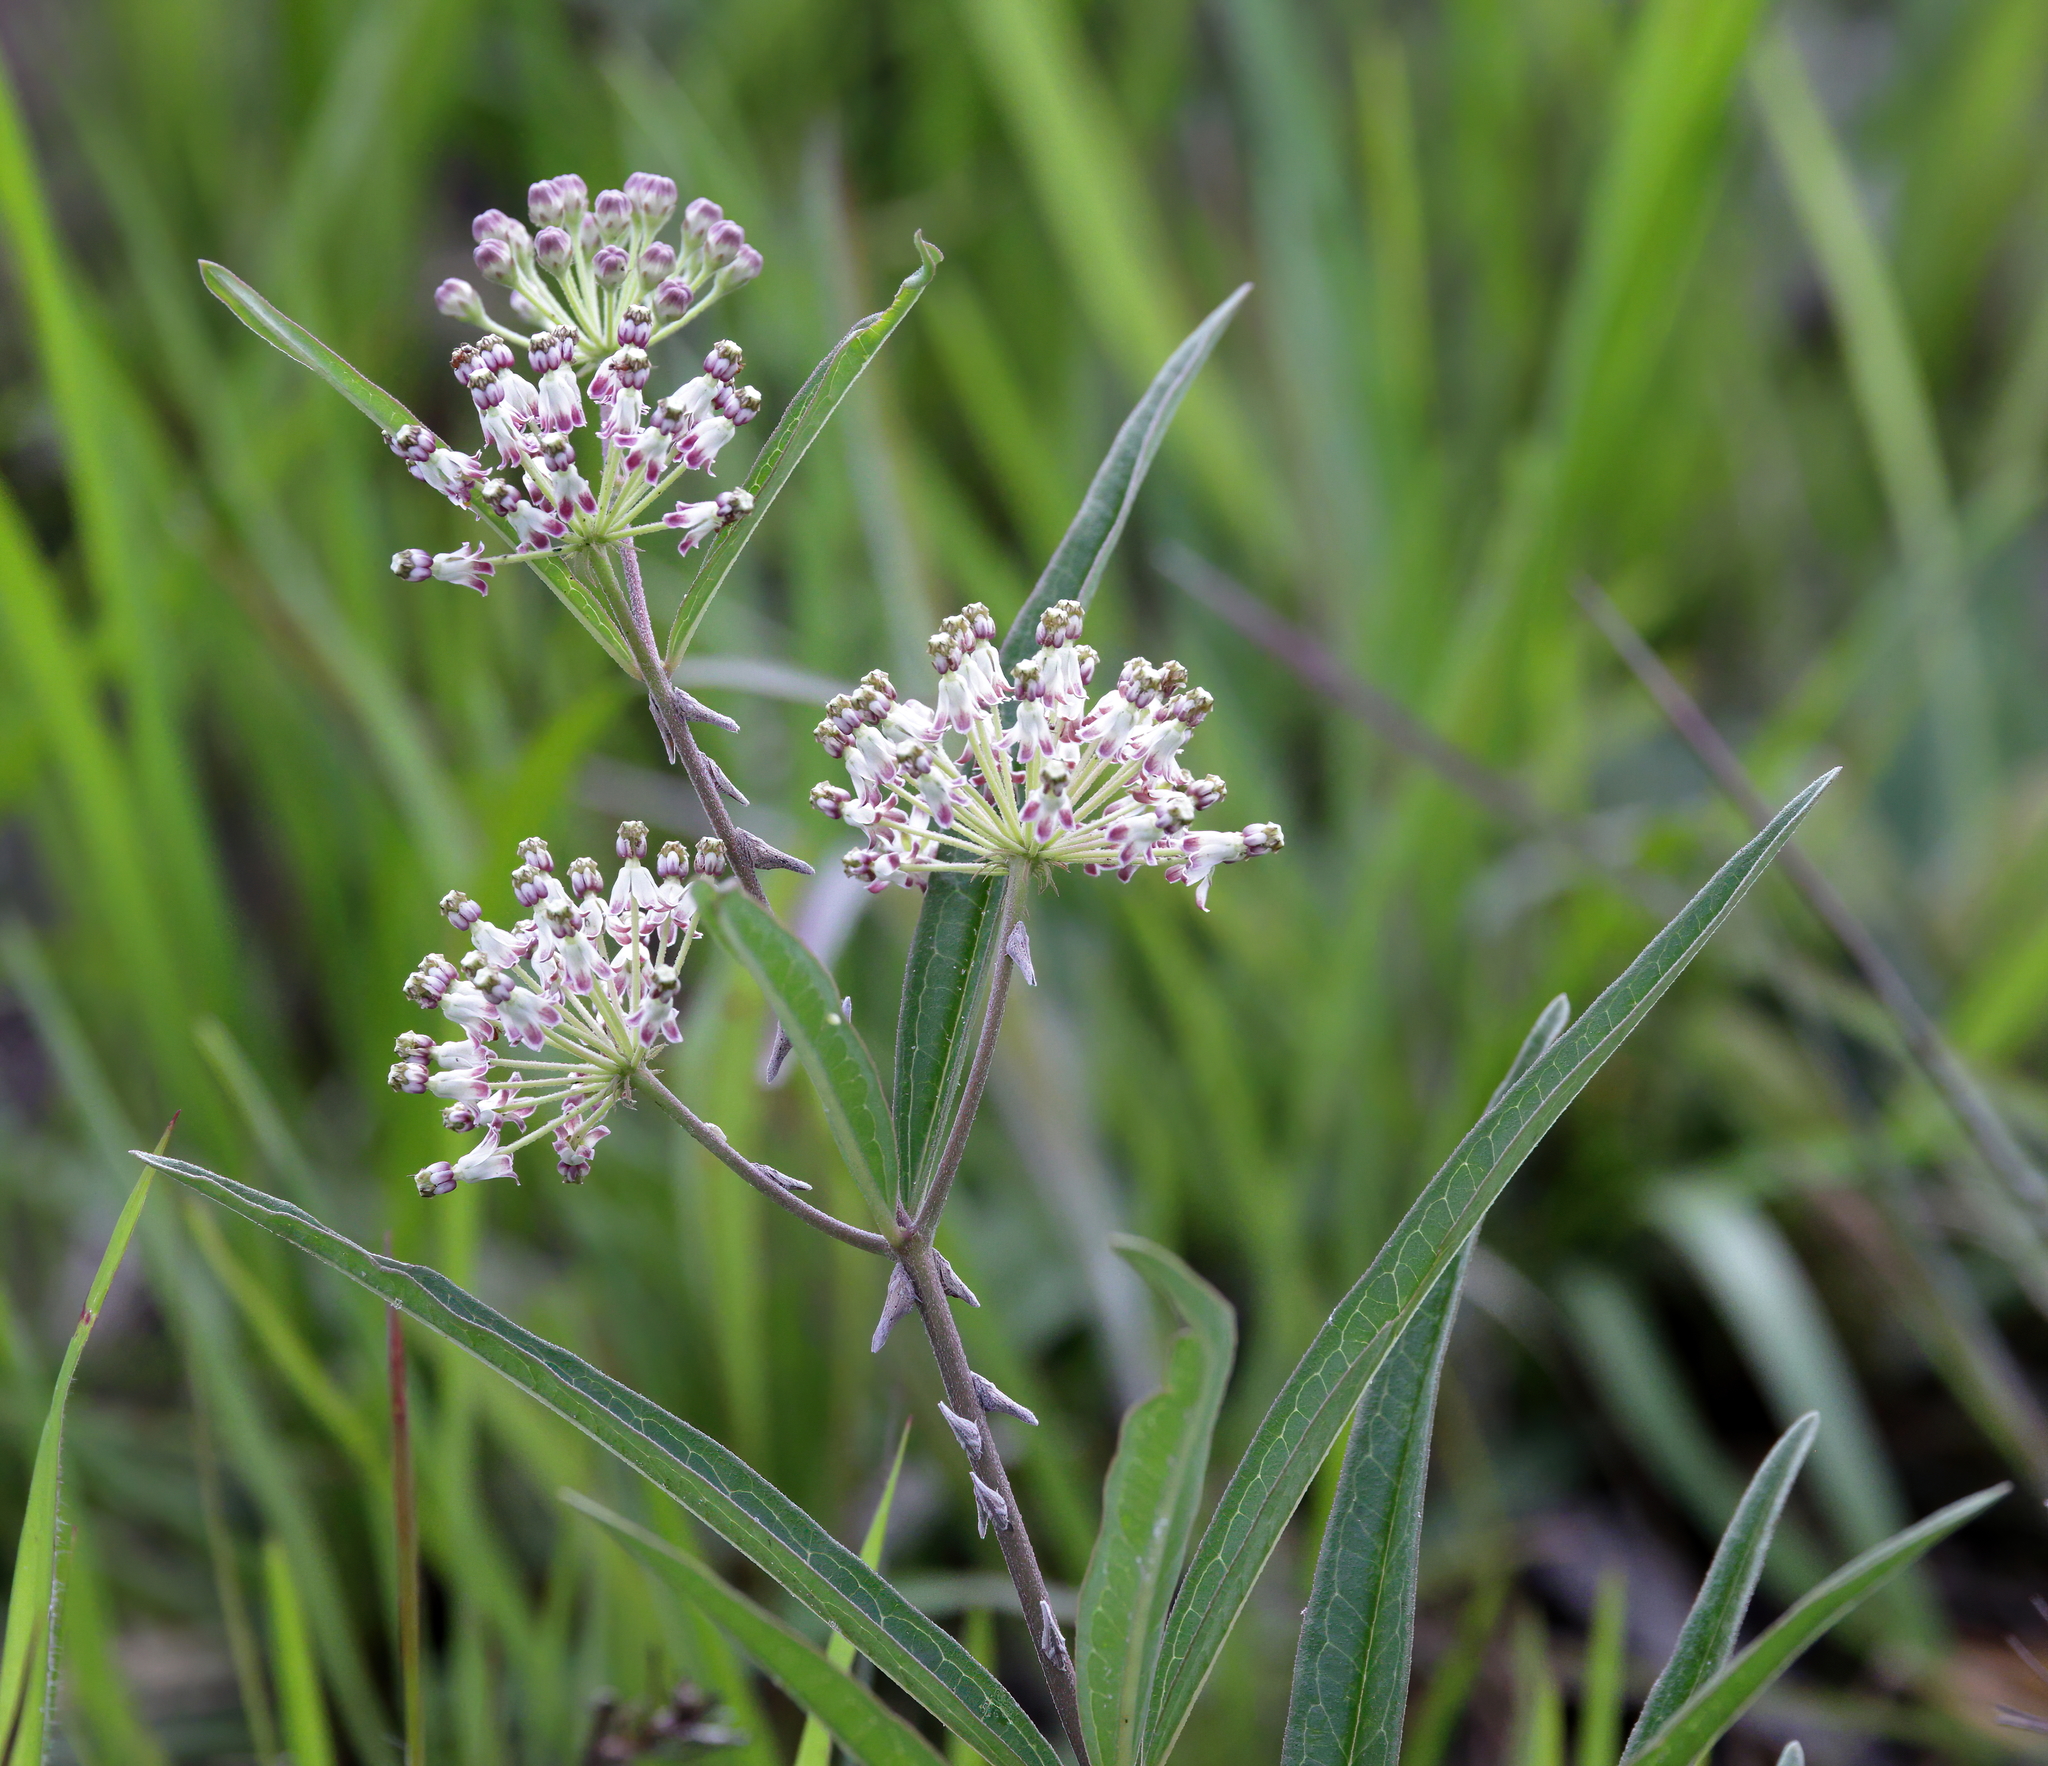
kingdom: Plantae
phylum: Tracheophyta
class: Magnoliopsida
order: Gentianales
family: Apocynaceae
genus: Asclepias
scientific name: Asclepias longifolia
